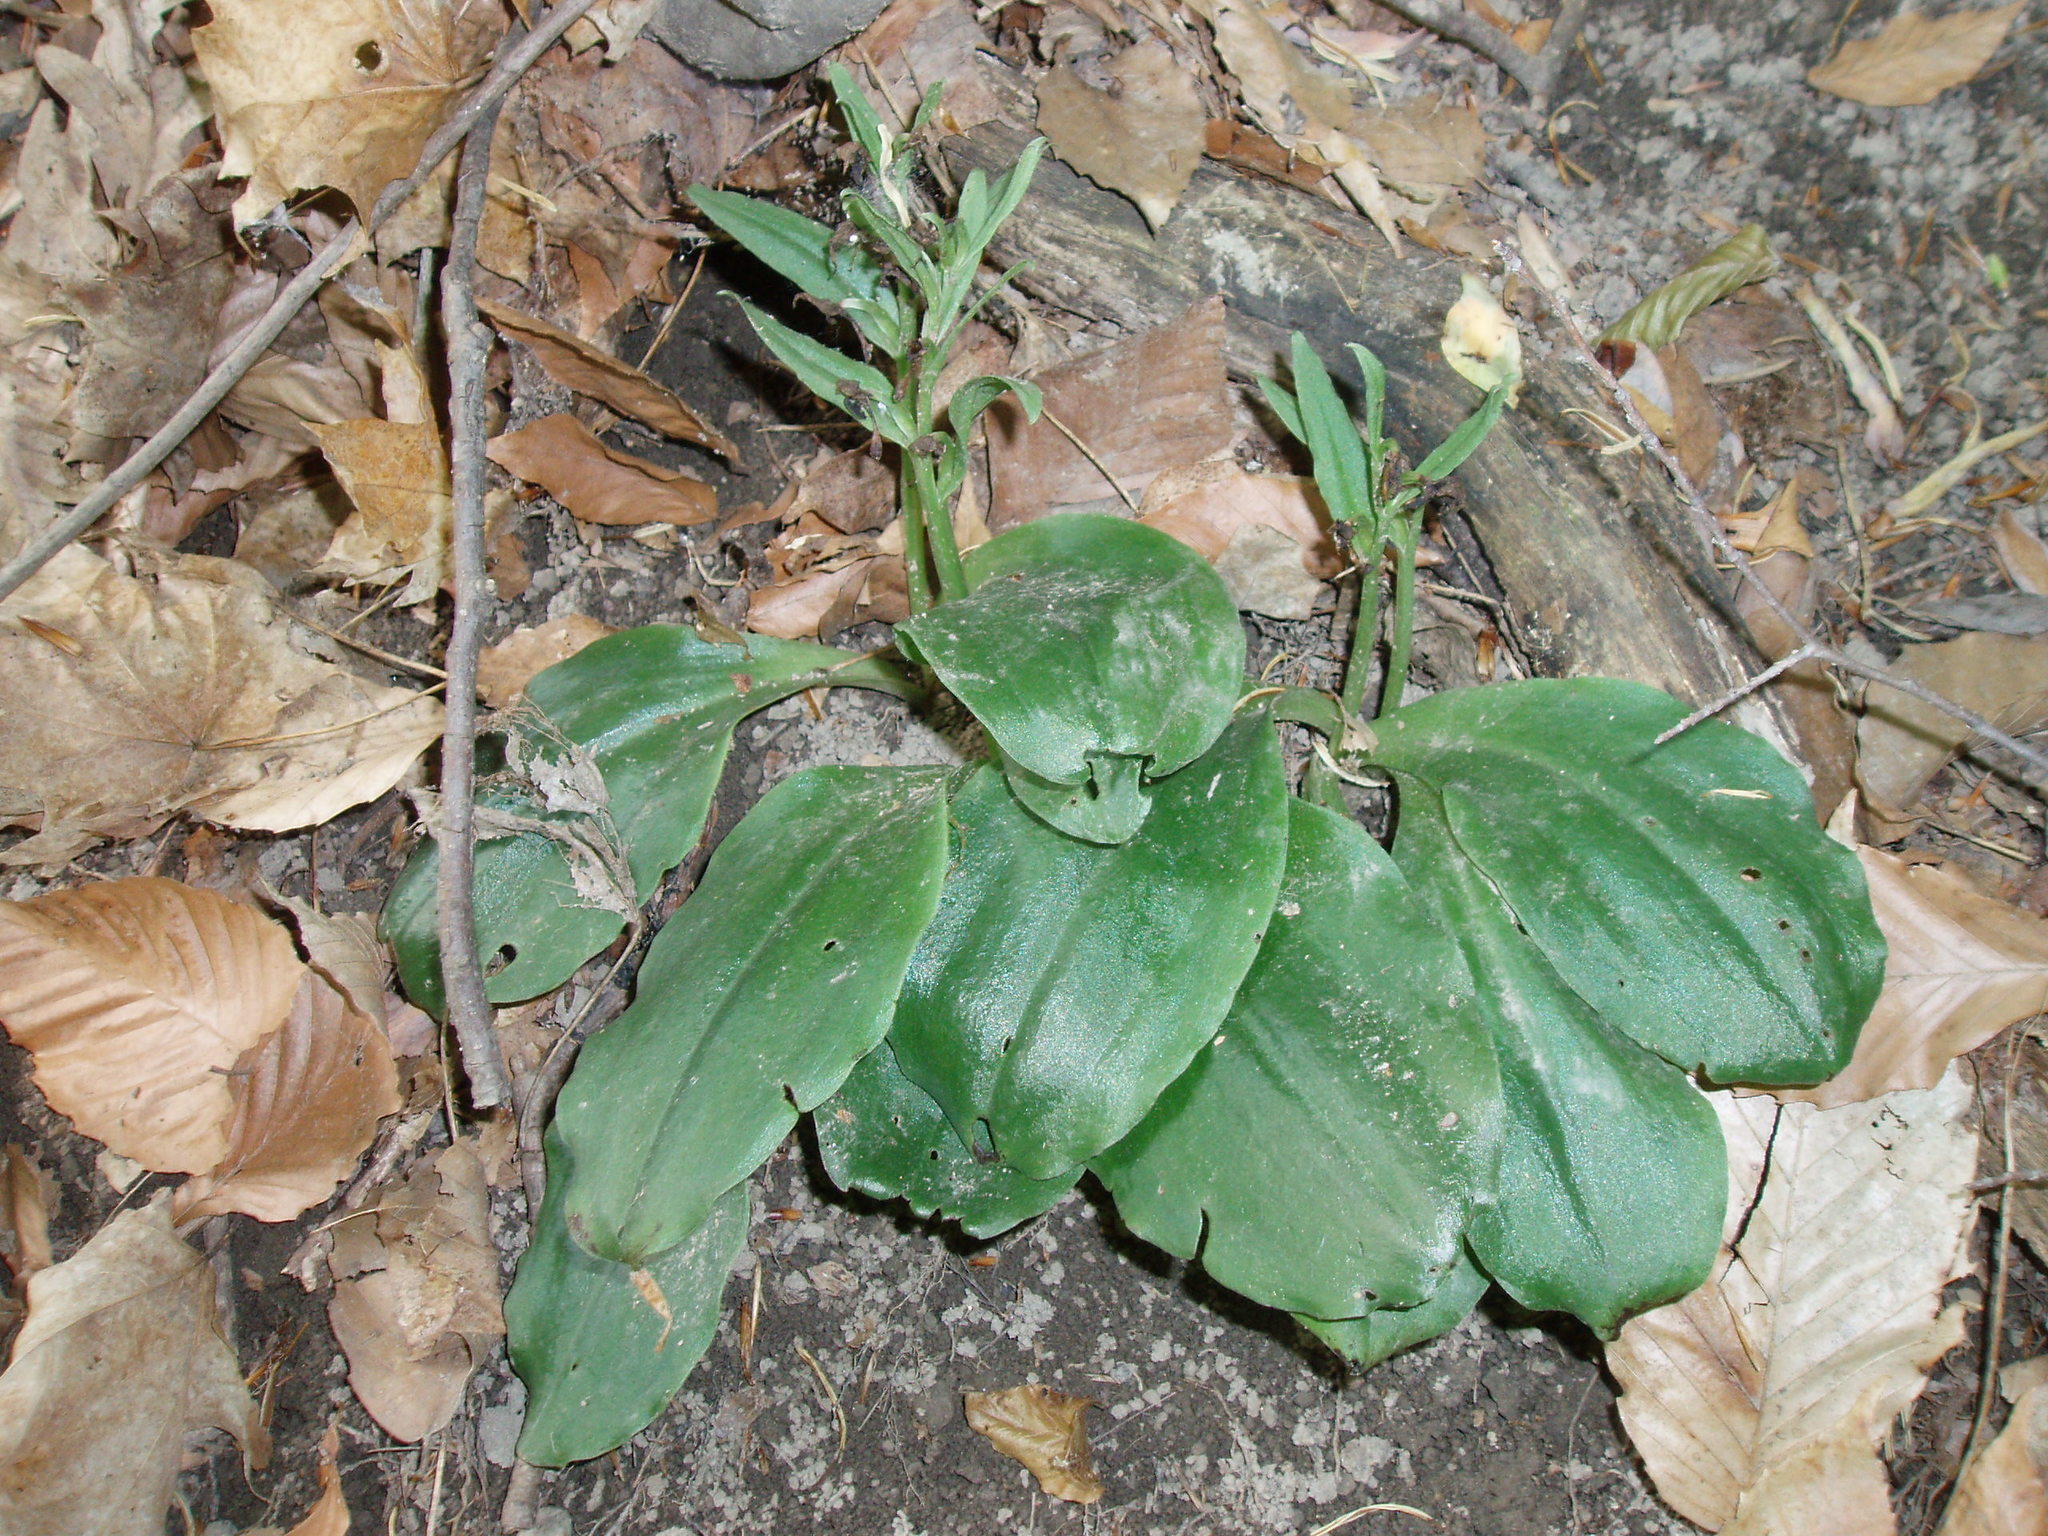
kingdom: Plantae
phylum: Tracheophyta
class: Liliopsida
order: Asparagales
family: Orchidaceae
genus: Galearis
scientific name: Galearis spectabilis
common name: Purple-hooded orchis
